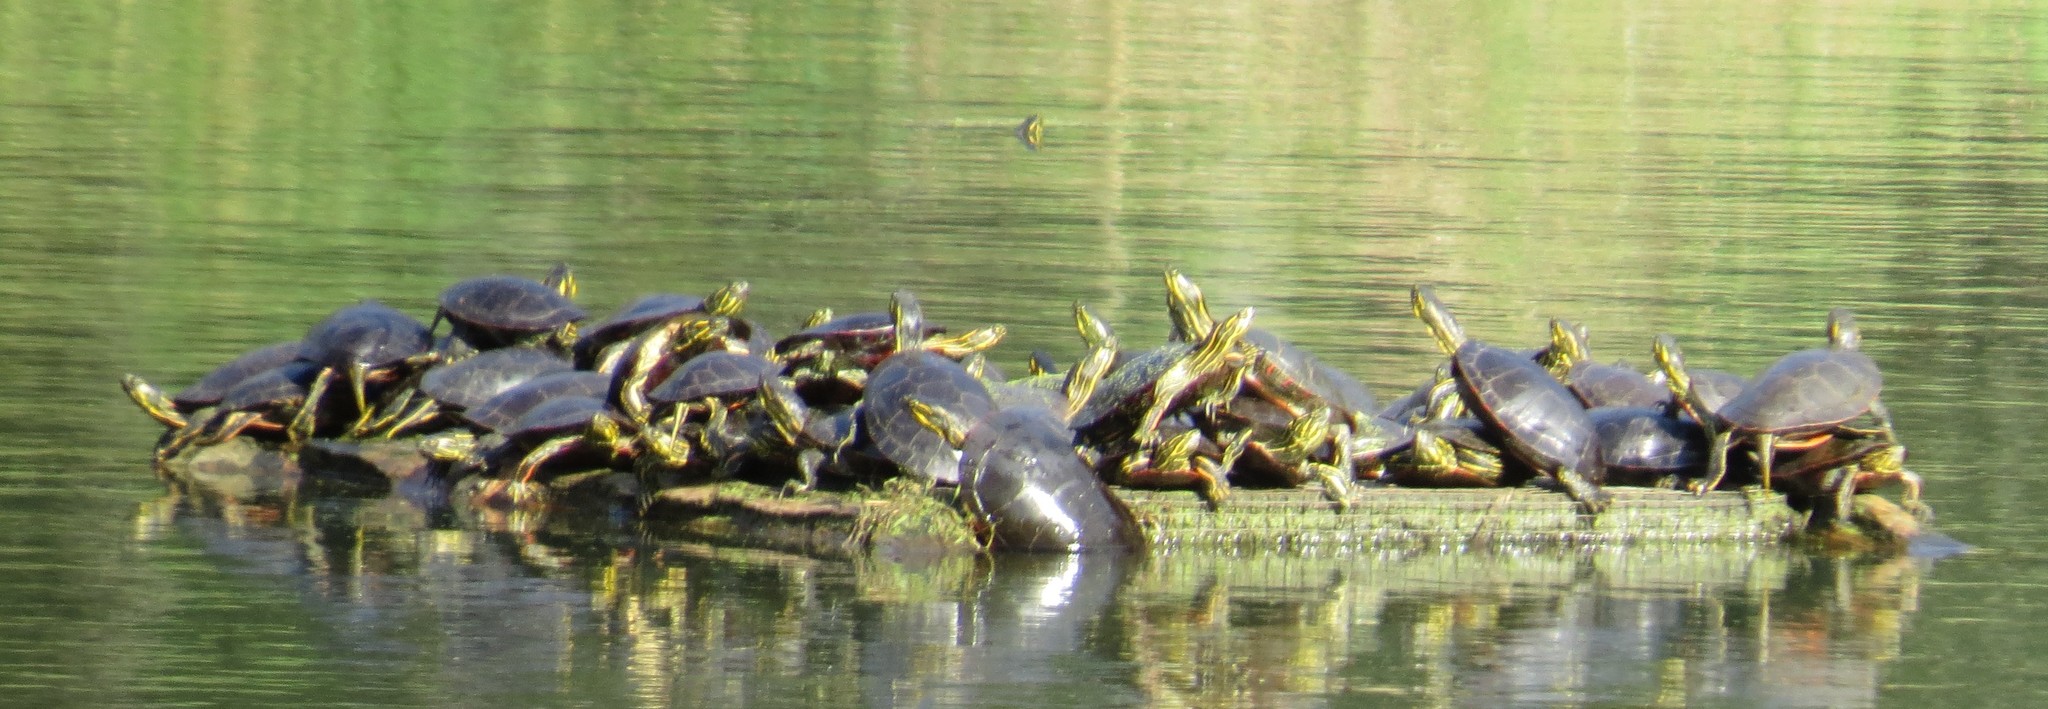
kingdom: Animalia
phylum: Chordata
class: Testudines
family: Emydidae
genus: Chrysemys
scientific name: Chrysemys picta
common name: Painted turtle
